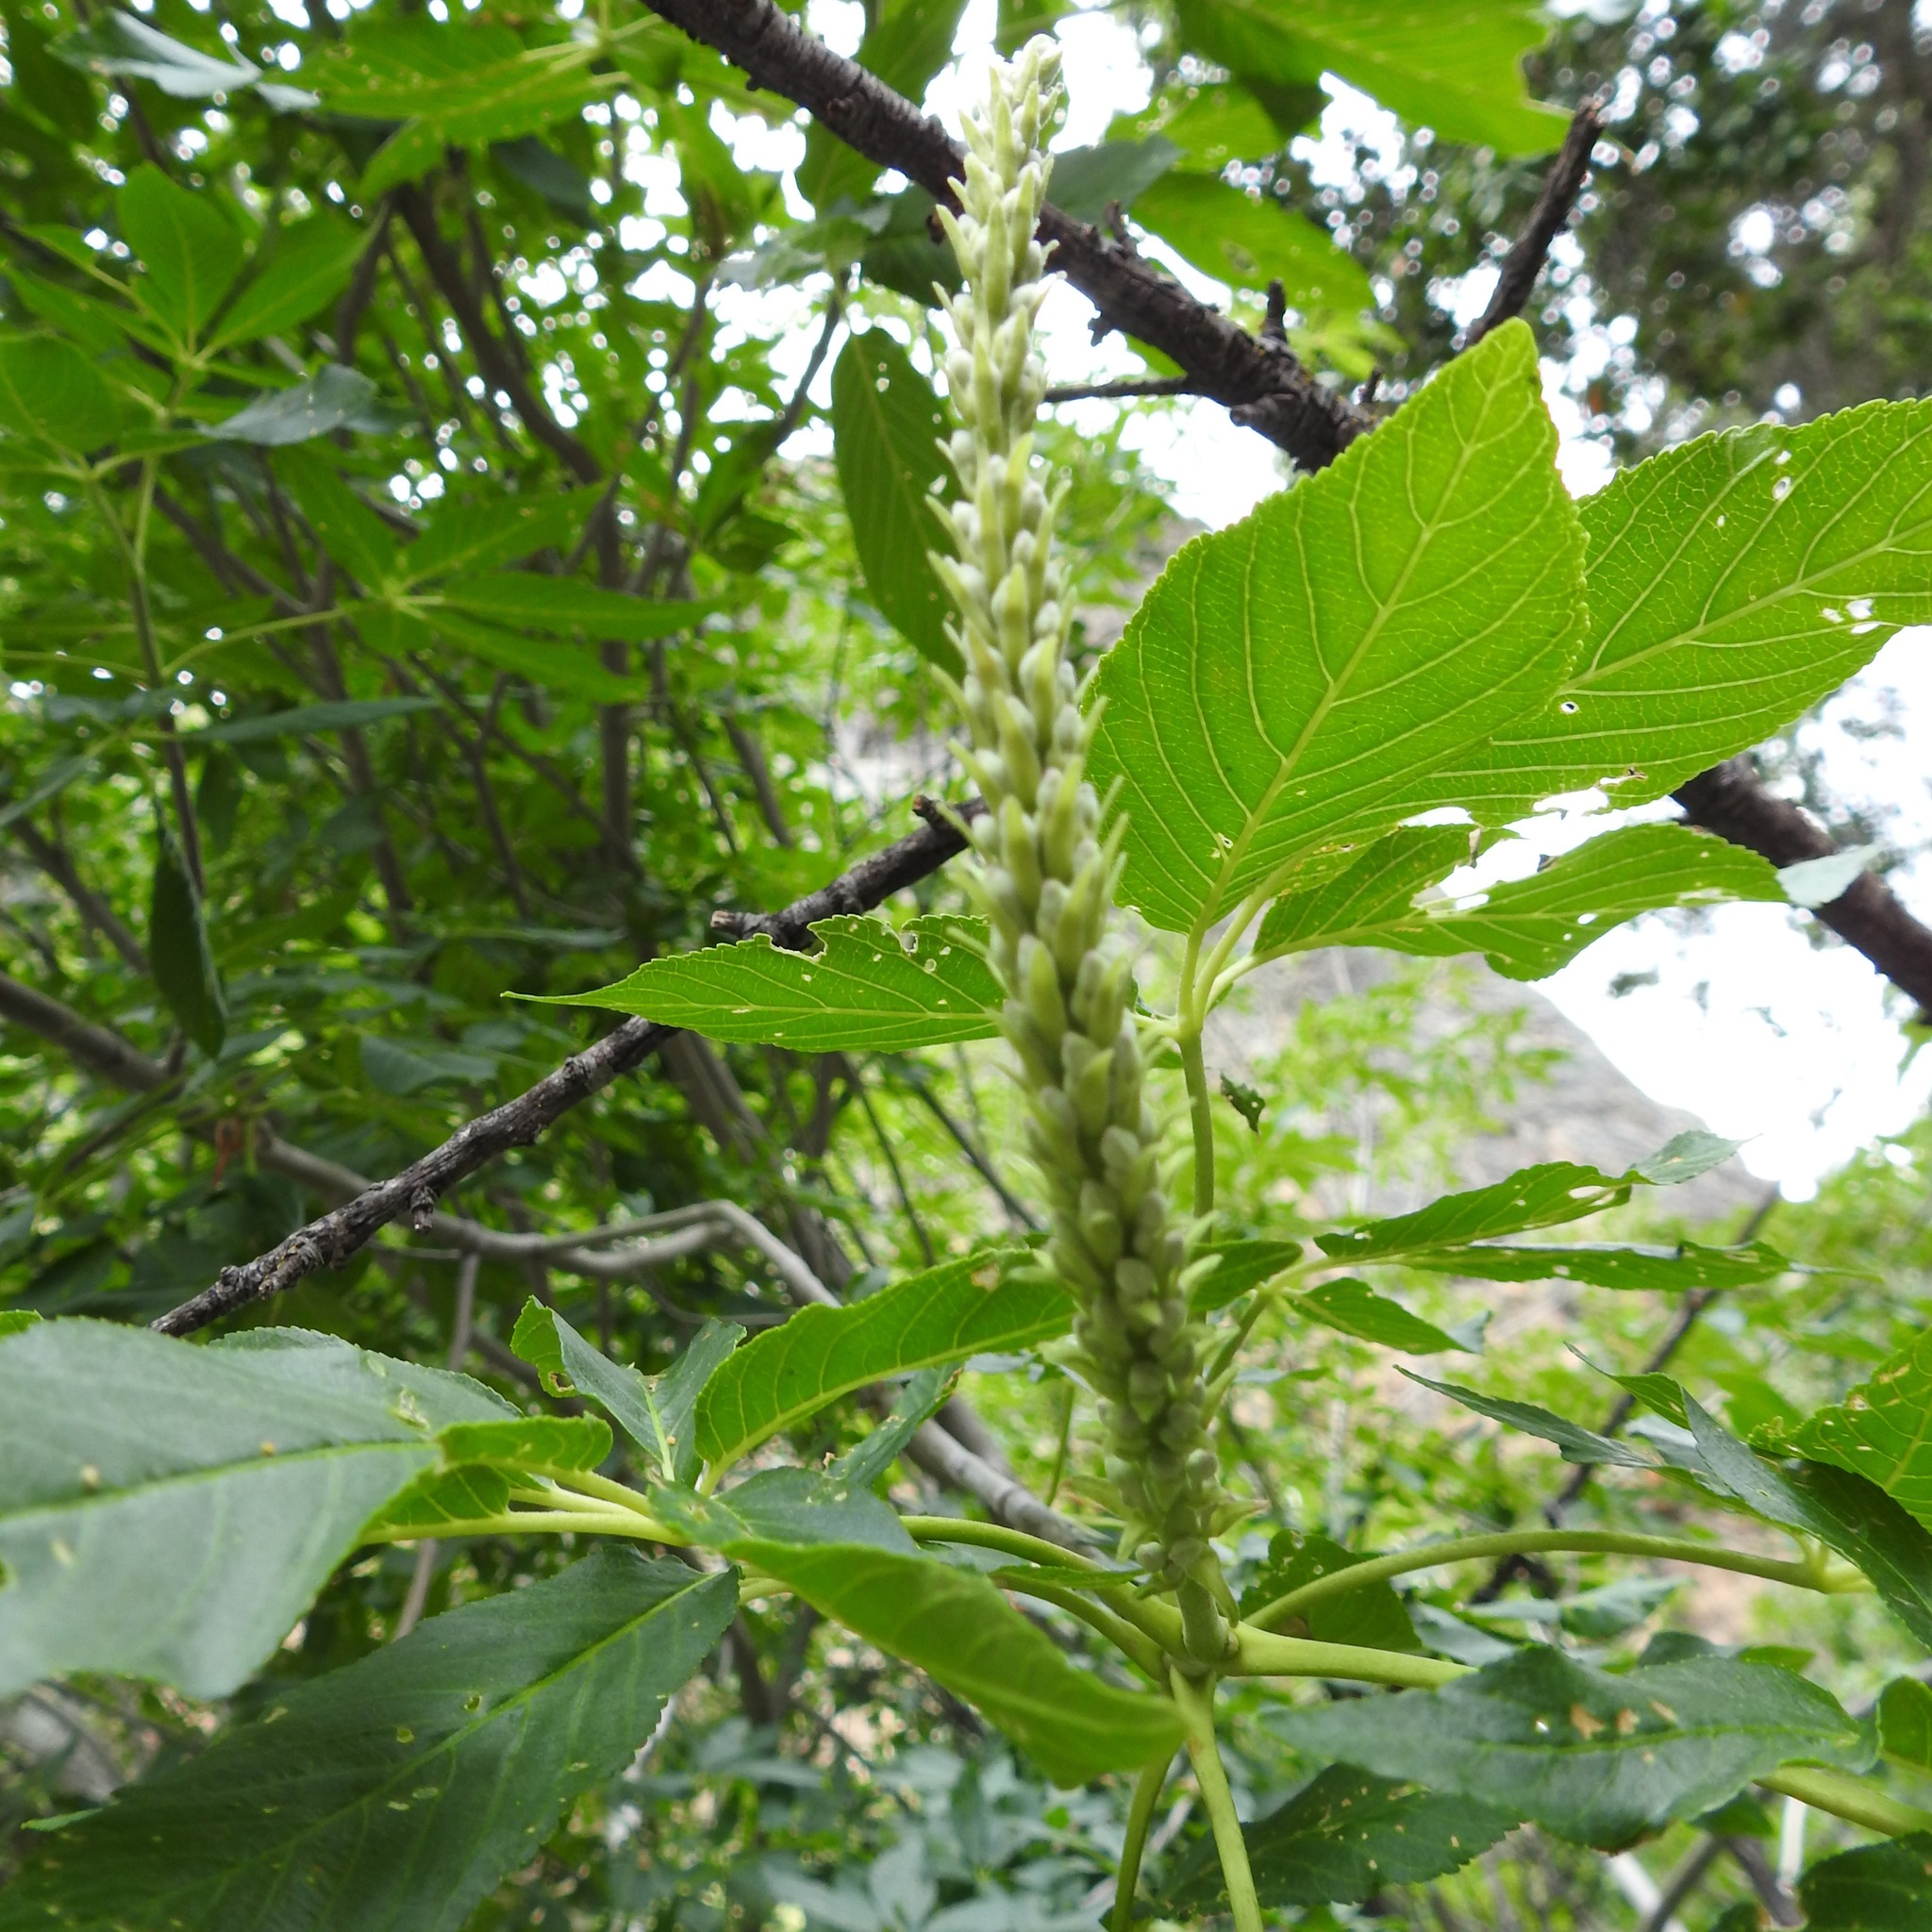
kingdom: Plantae
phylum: Tracheophyta
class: Magnoliopsida
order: Sapindales
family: Sapindaceae
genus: Aesculus
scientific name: Aesculus californica
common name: California buckeye
